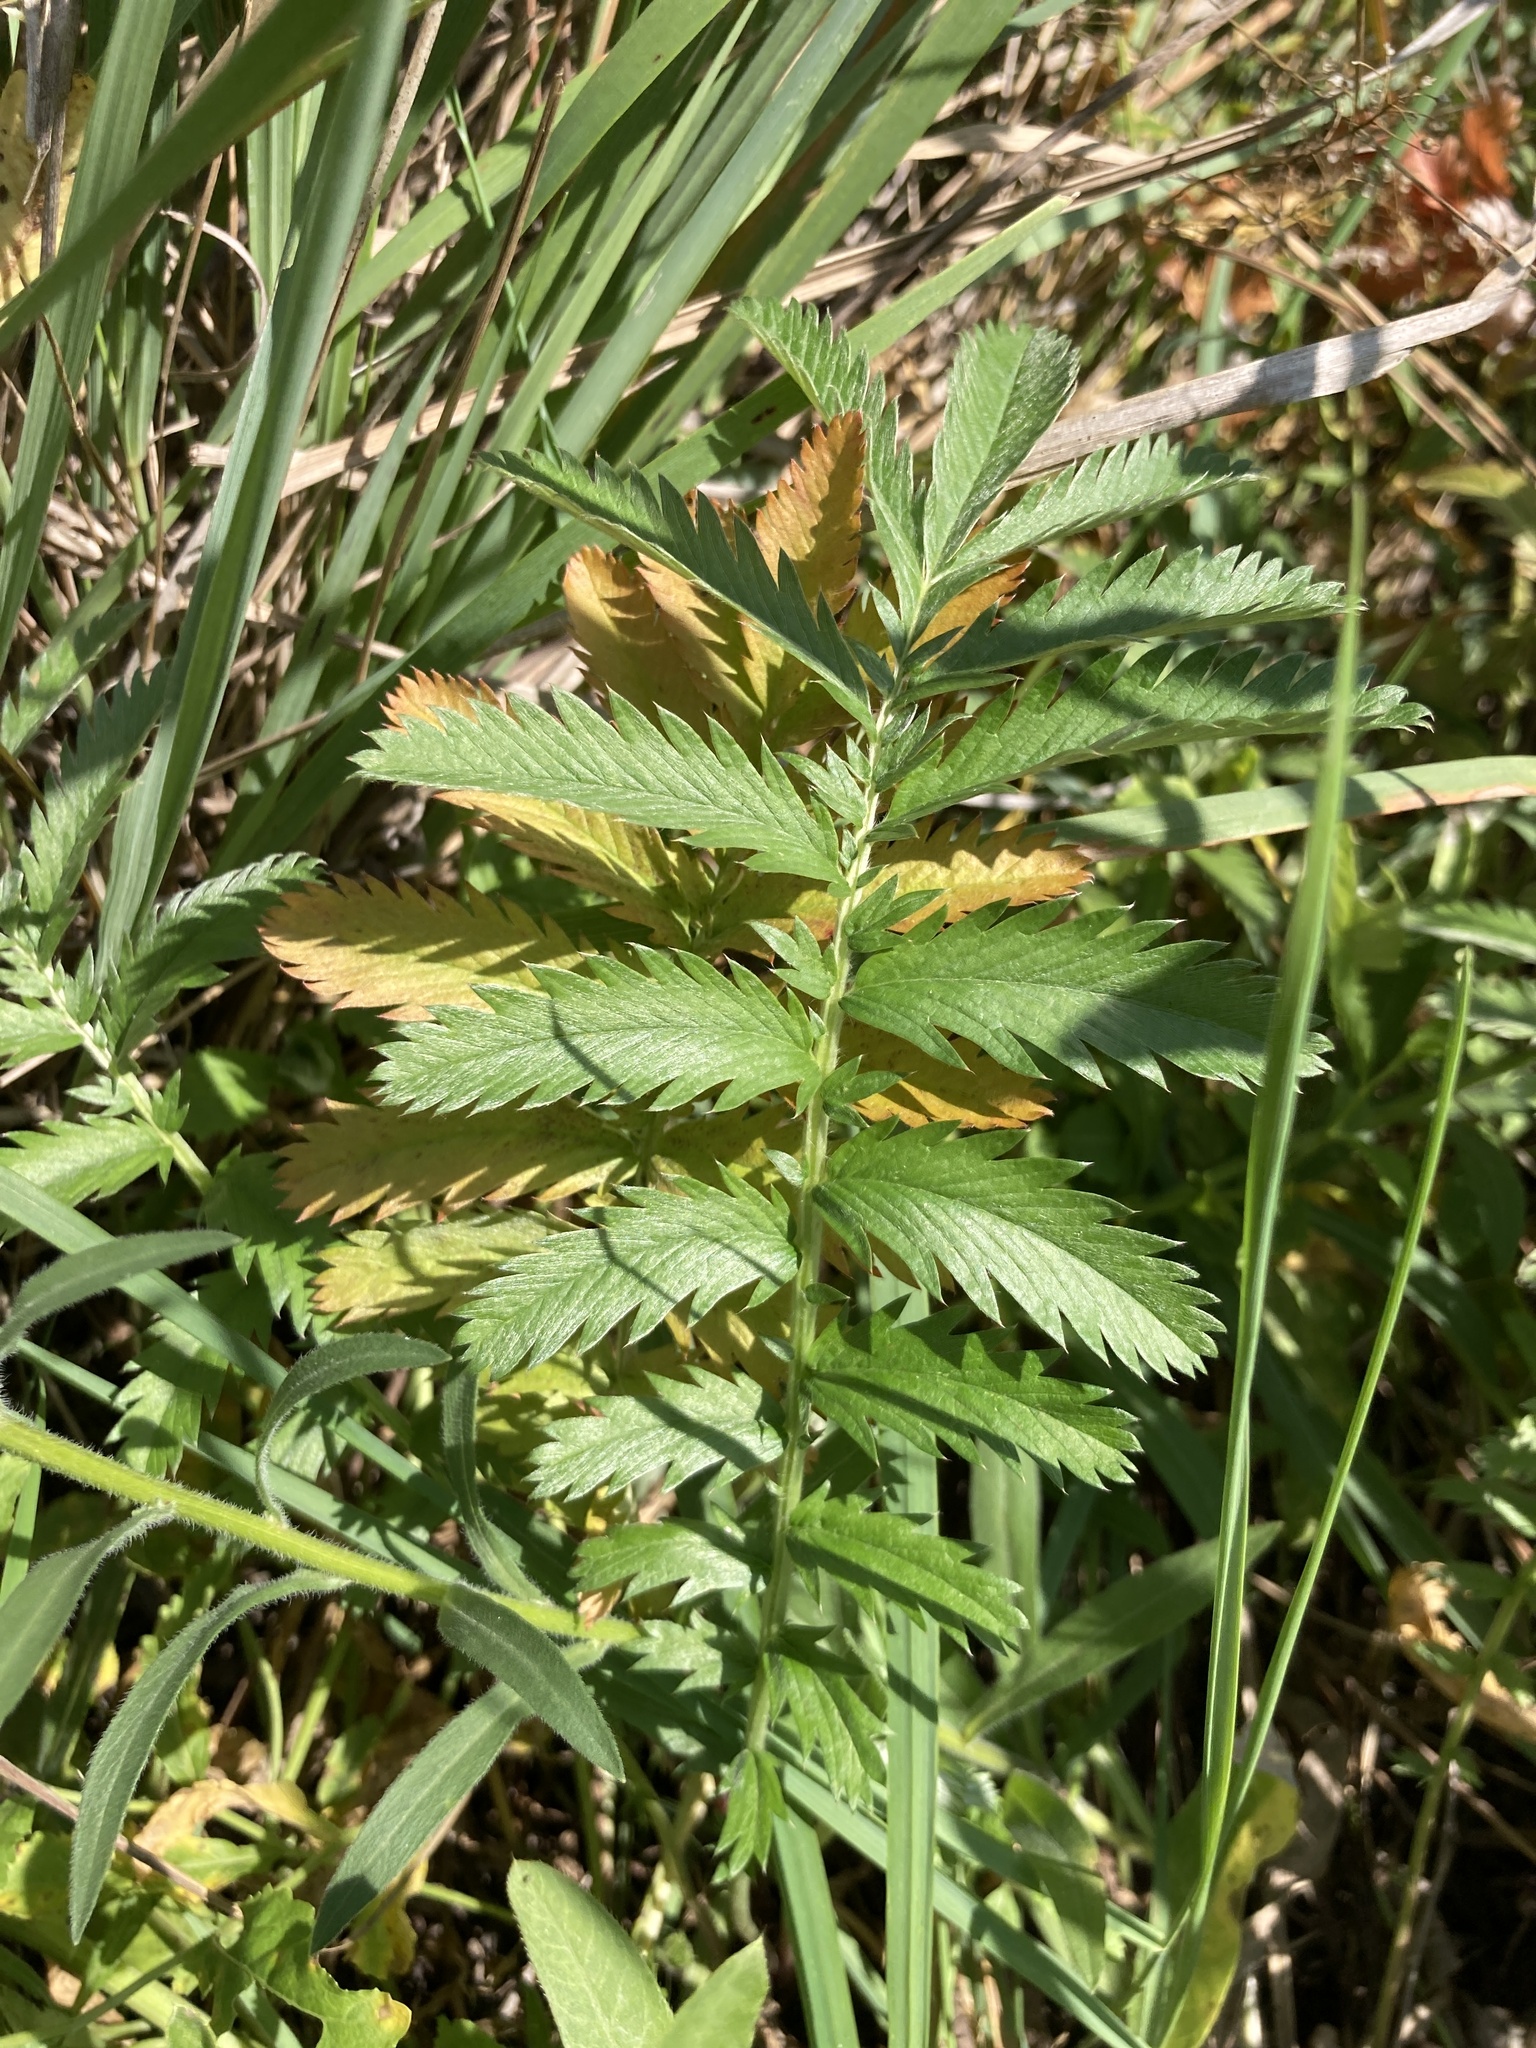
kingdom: Plantae
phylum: Tracheophyta
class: Magnoliopsida
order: Rosales
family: Rosaceae
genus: Argentina
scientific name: Argentina anserina
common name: Common silverweed
